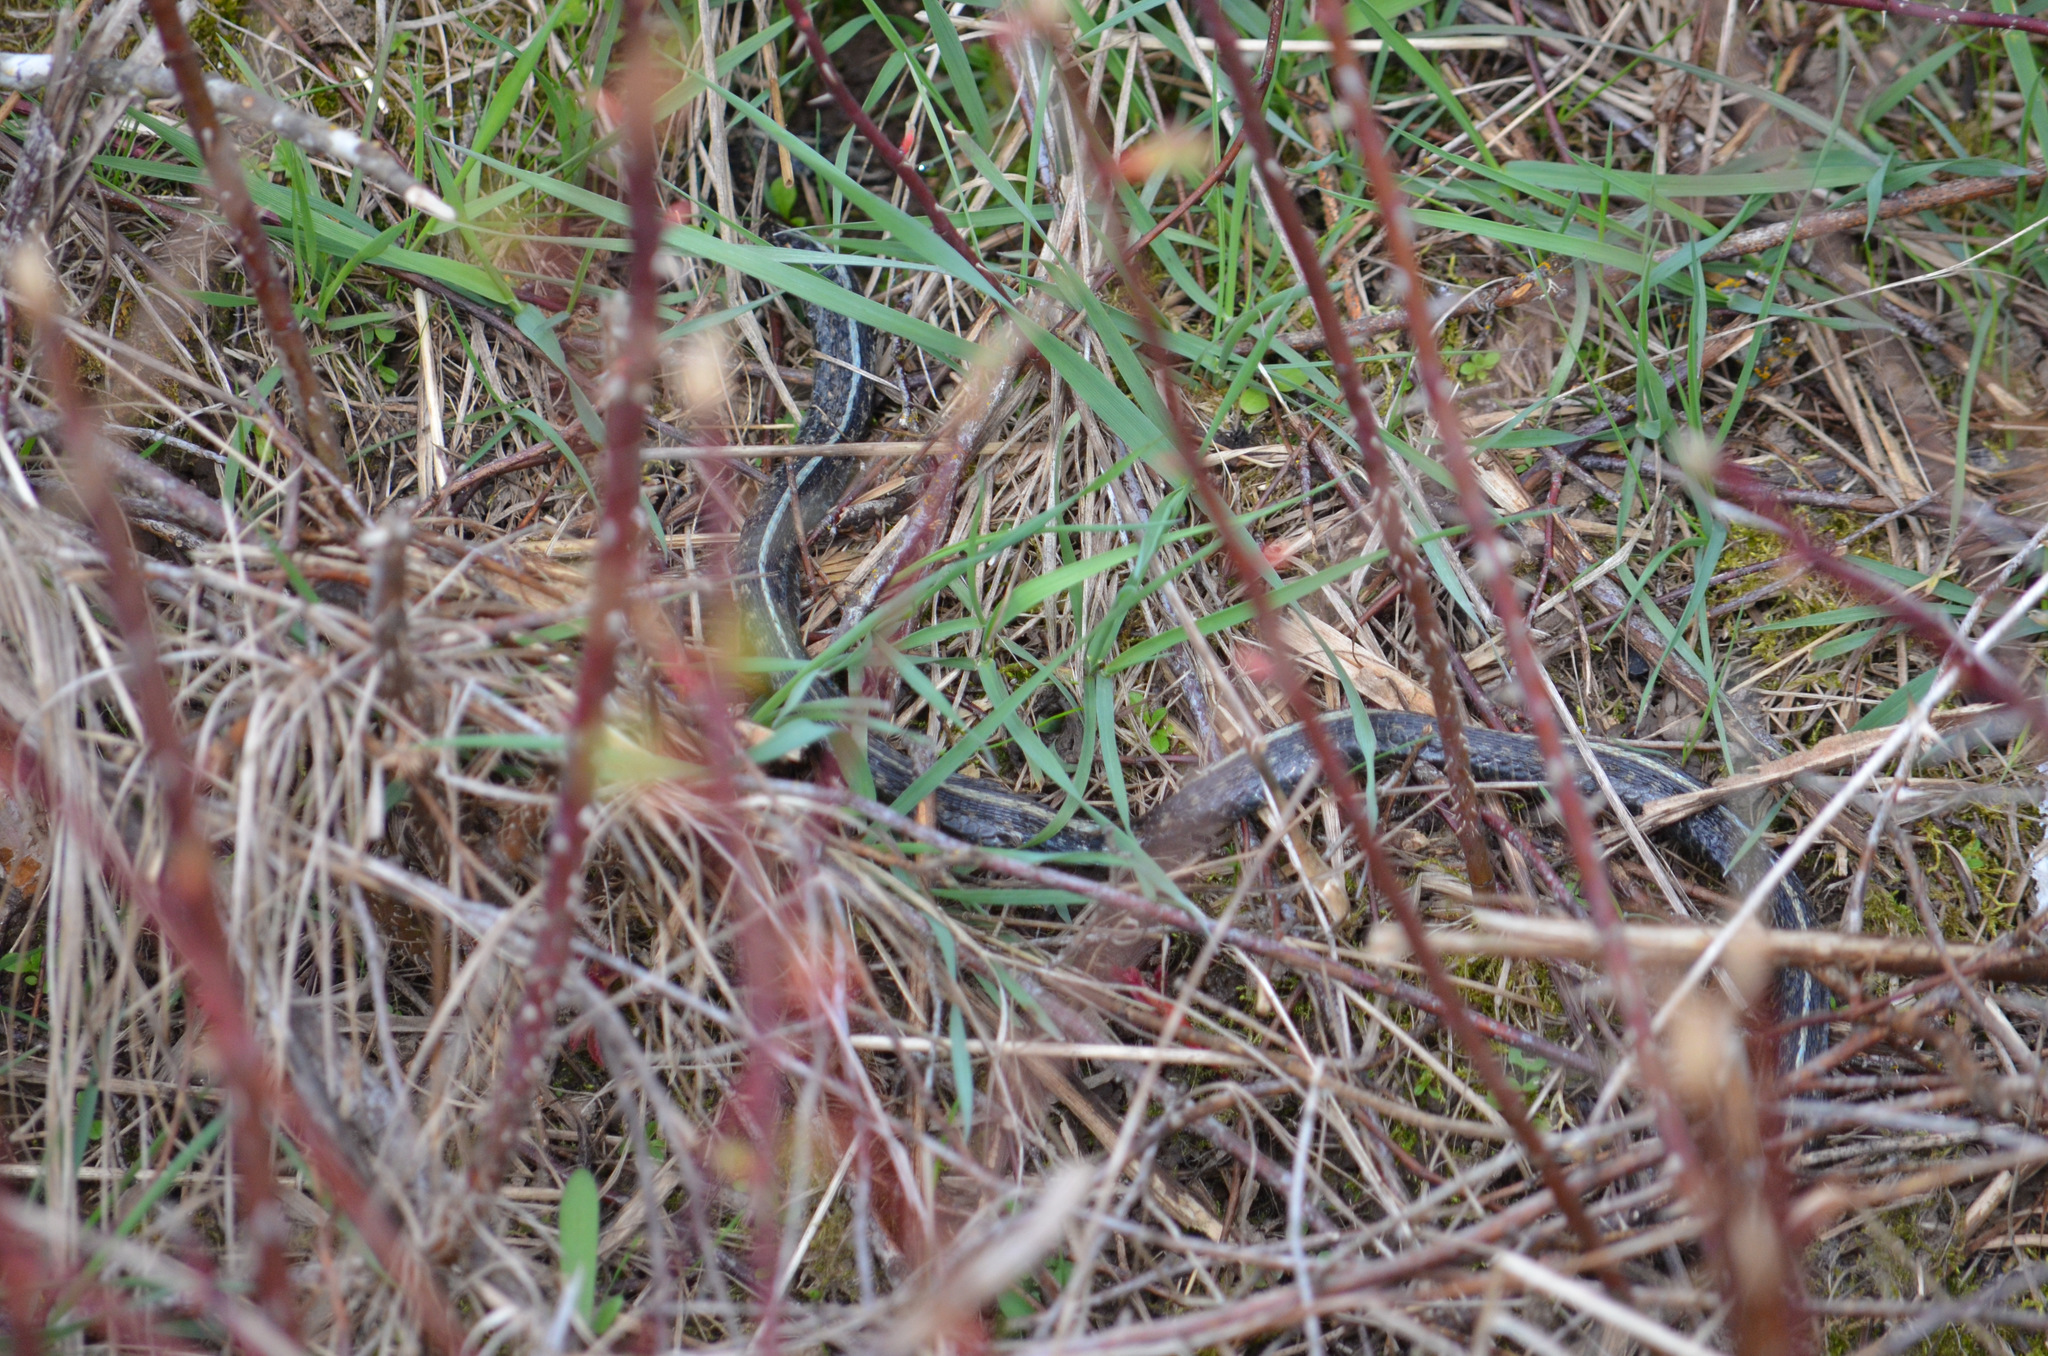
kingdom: Animalia
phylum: Chordata
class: Squamata
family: Colubridae
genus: Thamnophis
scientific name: Thamnophis sirtalis
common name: Common garter snake
